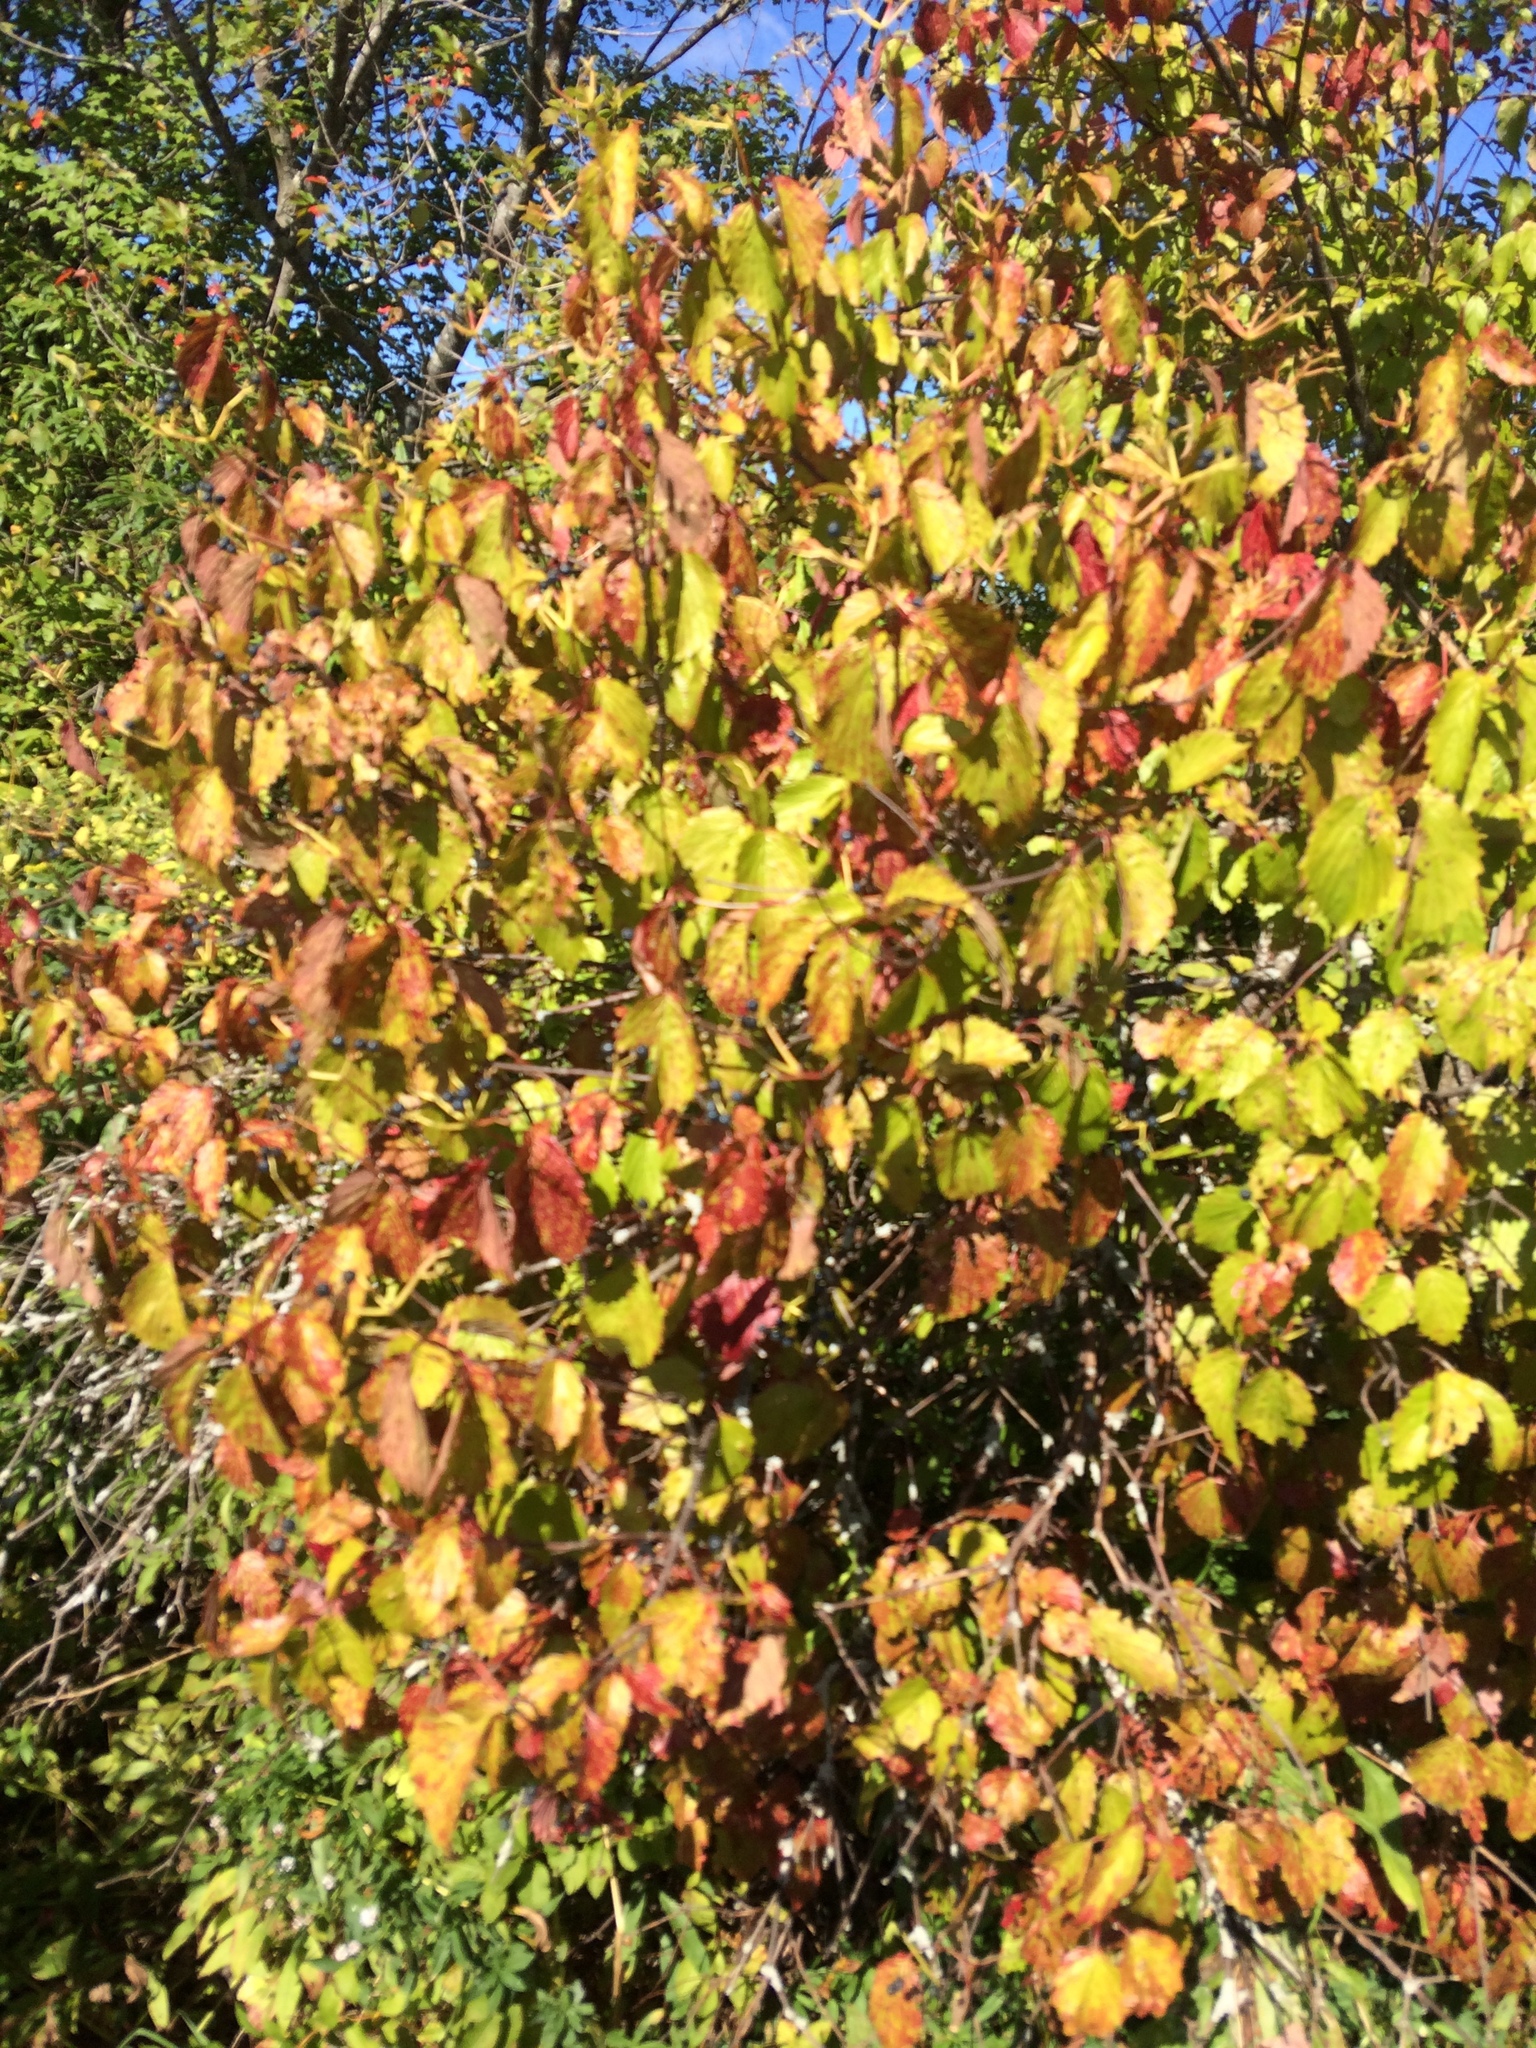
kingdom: Plantae
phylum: Tracheophyta
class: Magnoliopsida
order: Dipsacales
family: Viburnaceae
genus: Viburnum
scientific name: Viburnum dentatum
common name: Arrow-wood
